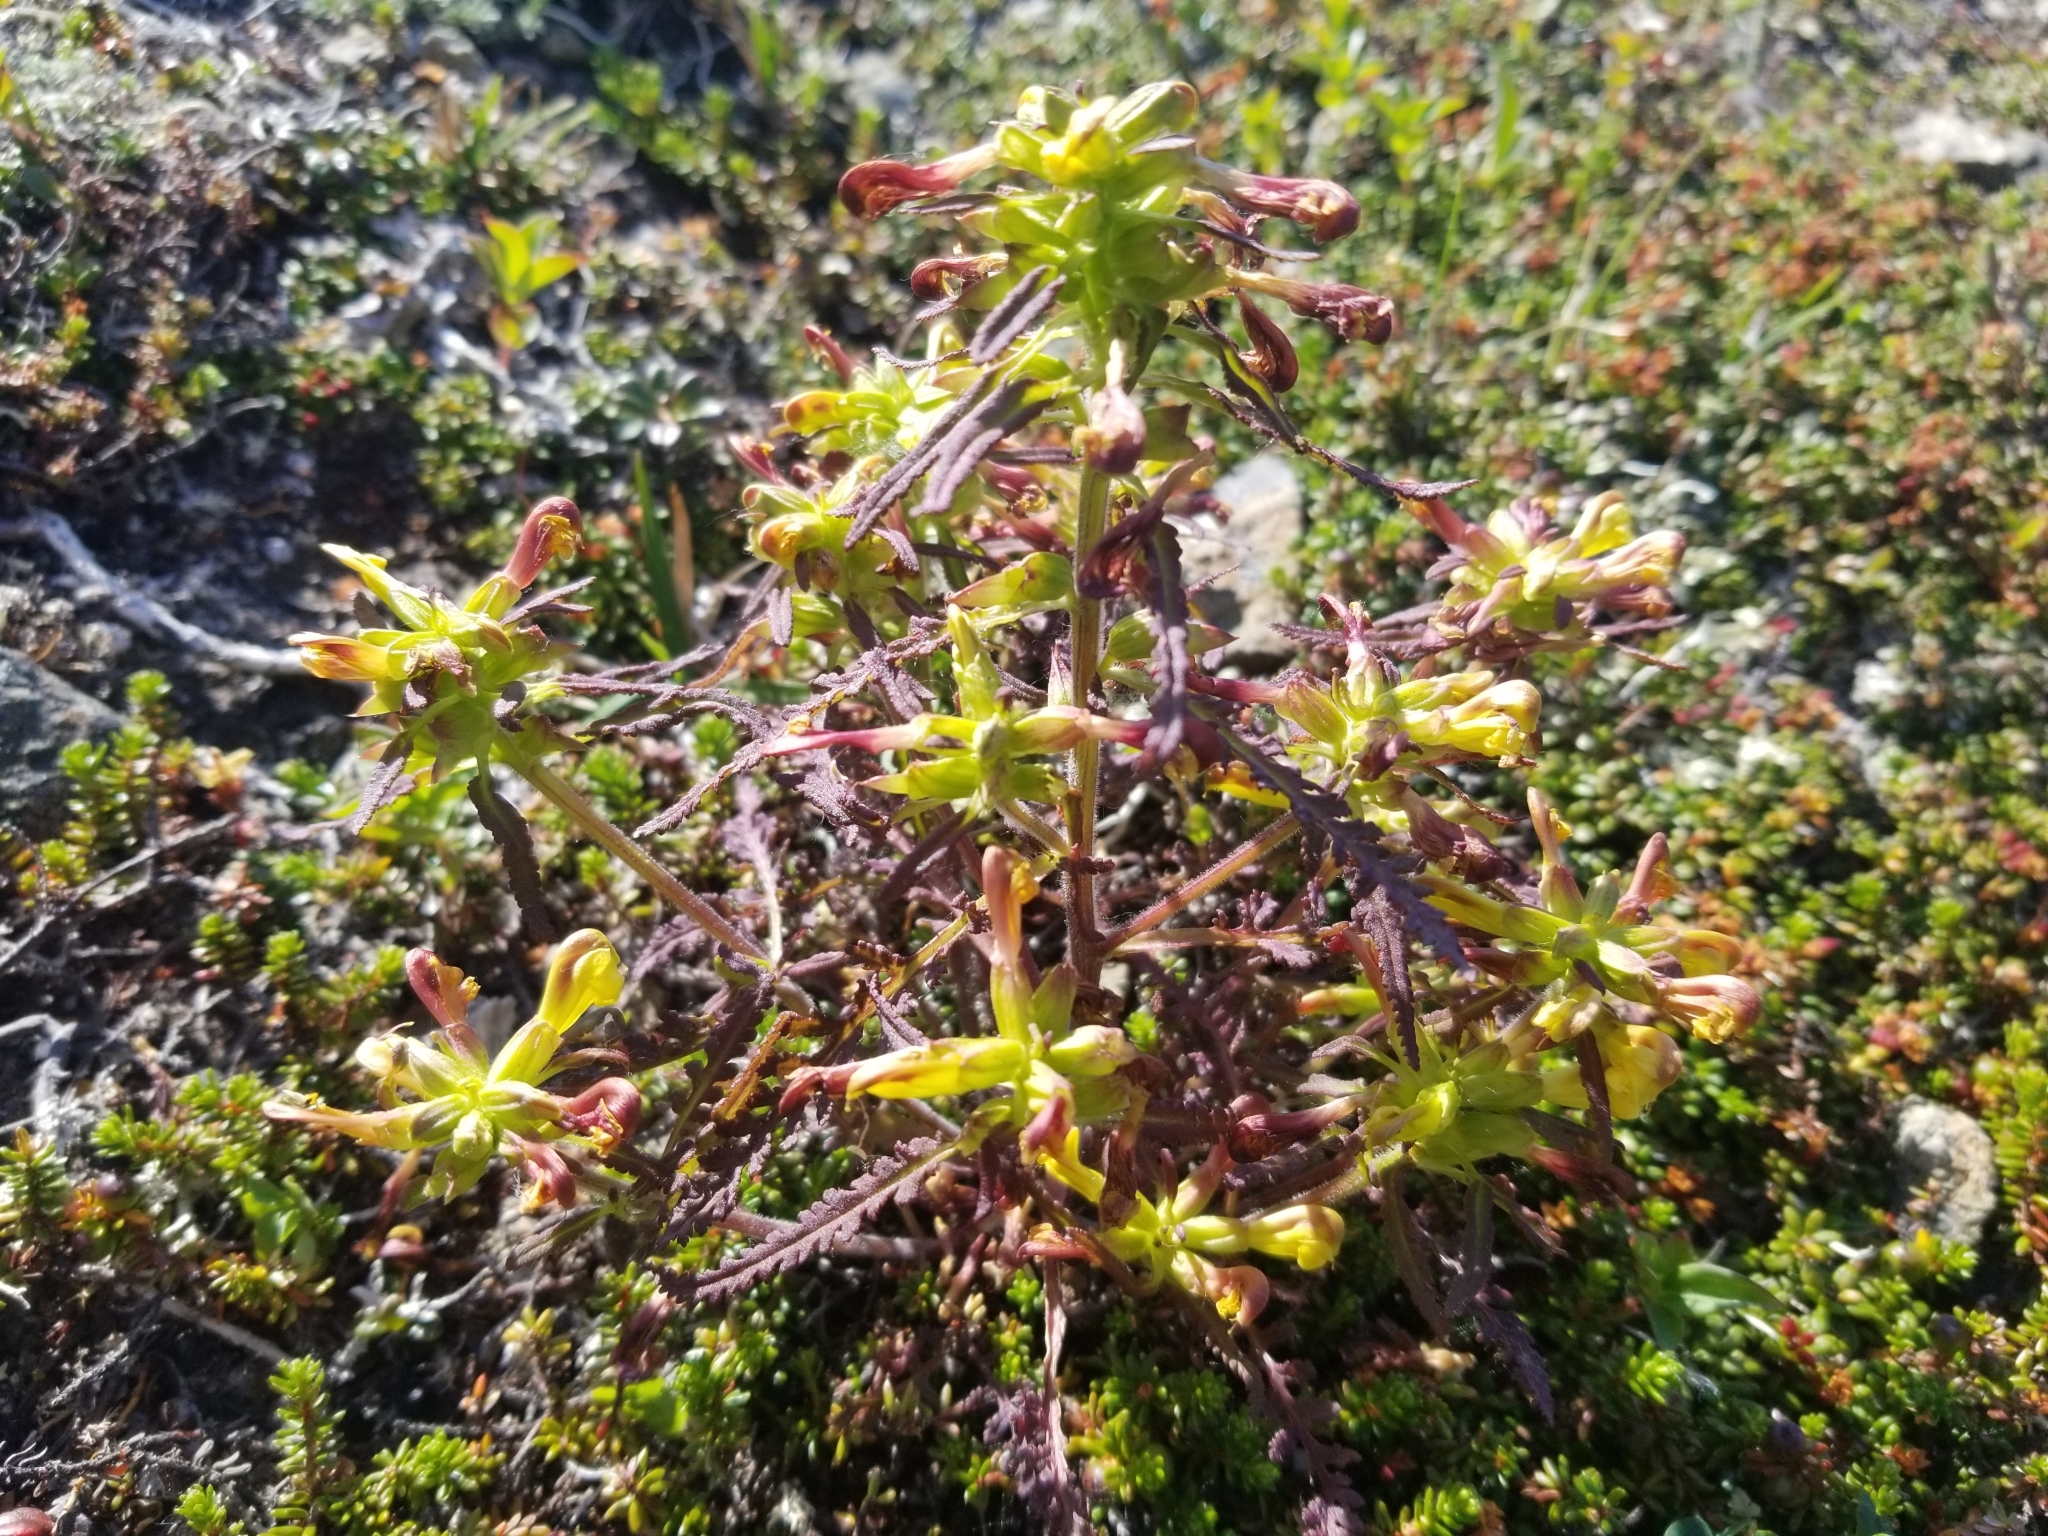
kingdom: Plantae
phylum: Tracheophyta
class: Magnoliopsida
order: Lamiales
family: Orobanchaceae
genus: Pedicularis
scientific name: Pedicularis labradorica
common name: Labrador lousewort
